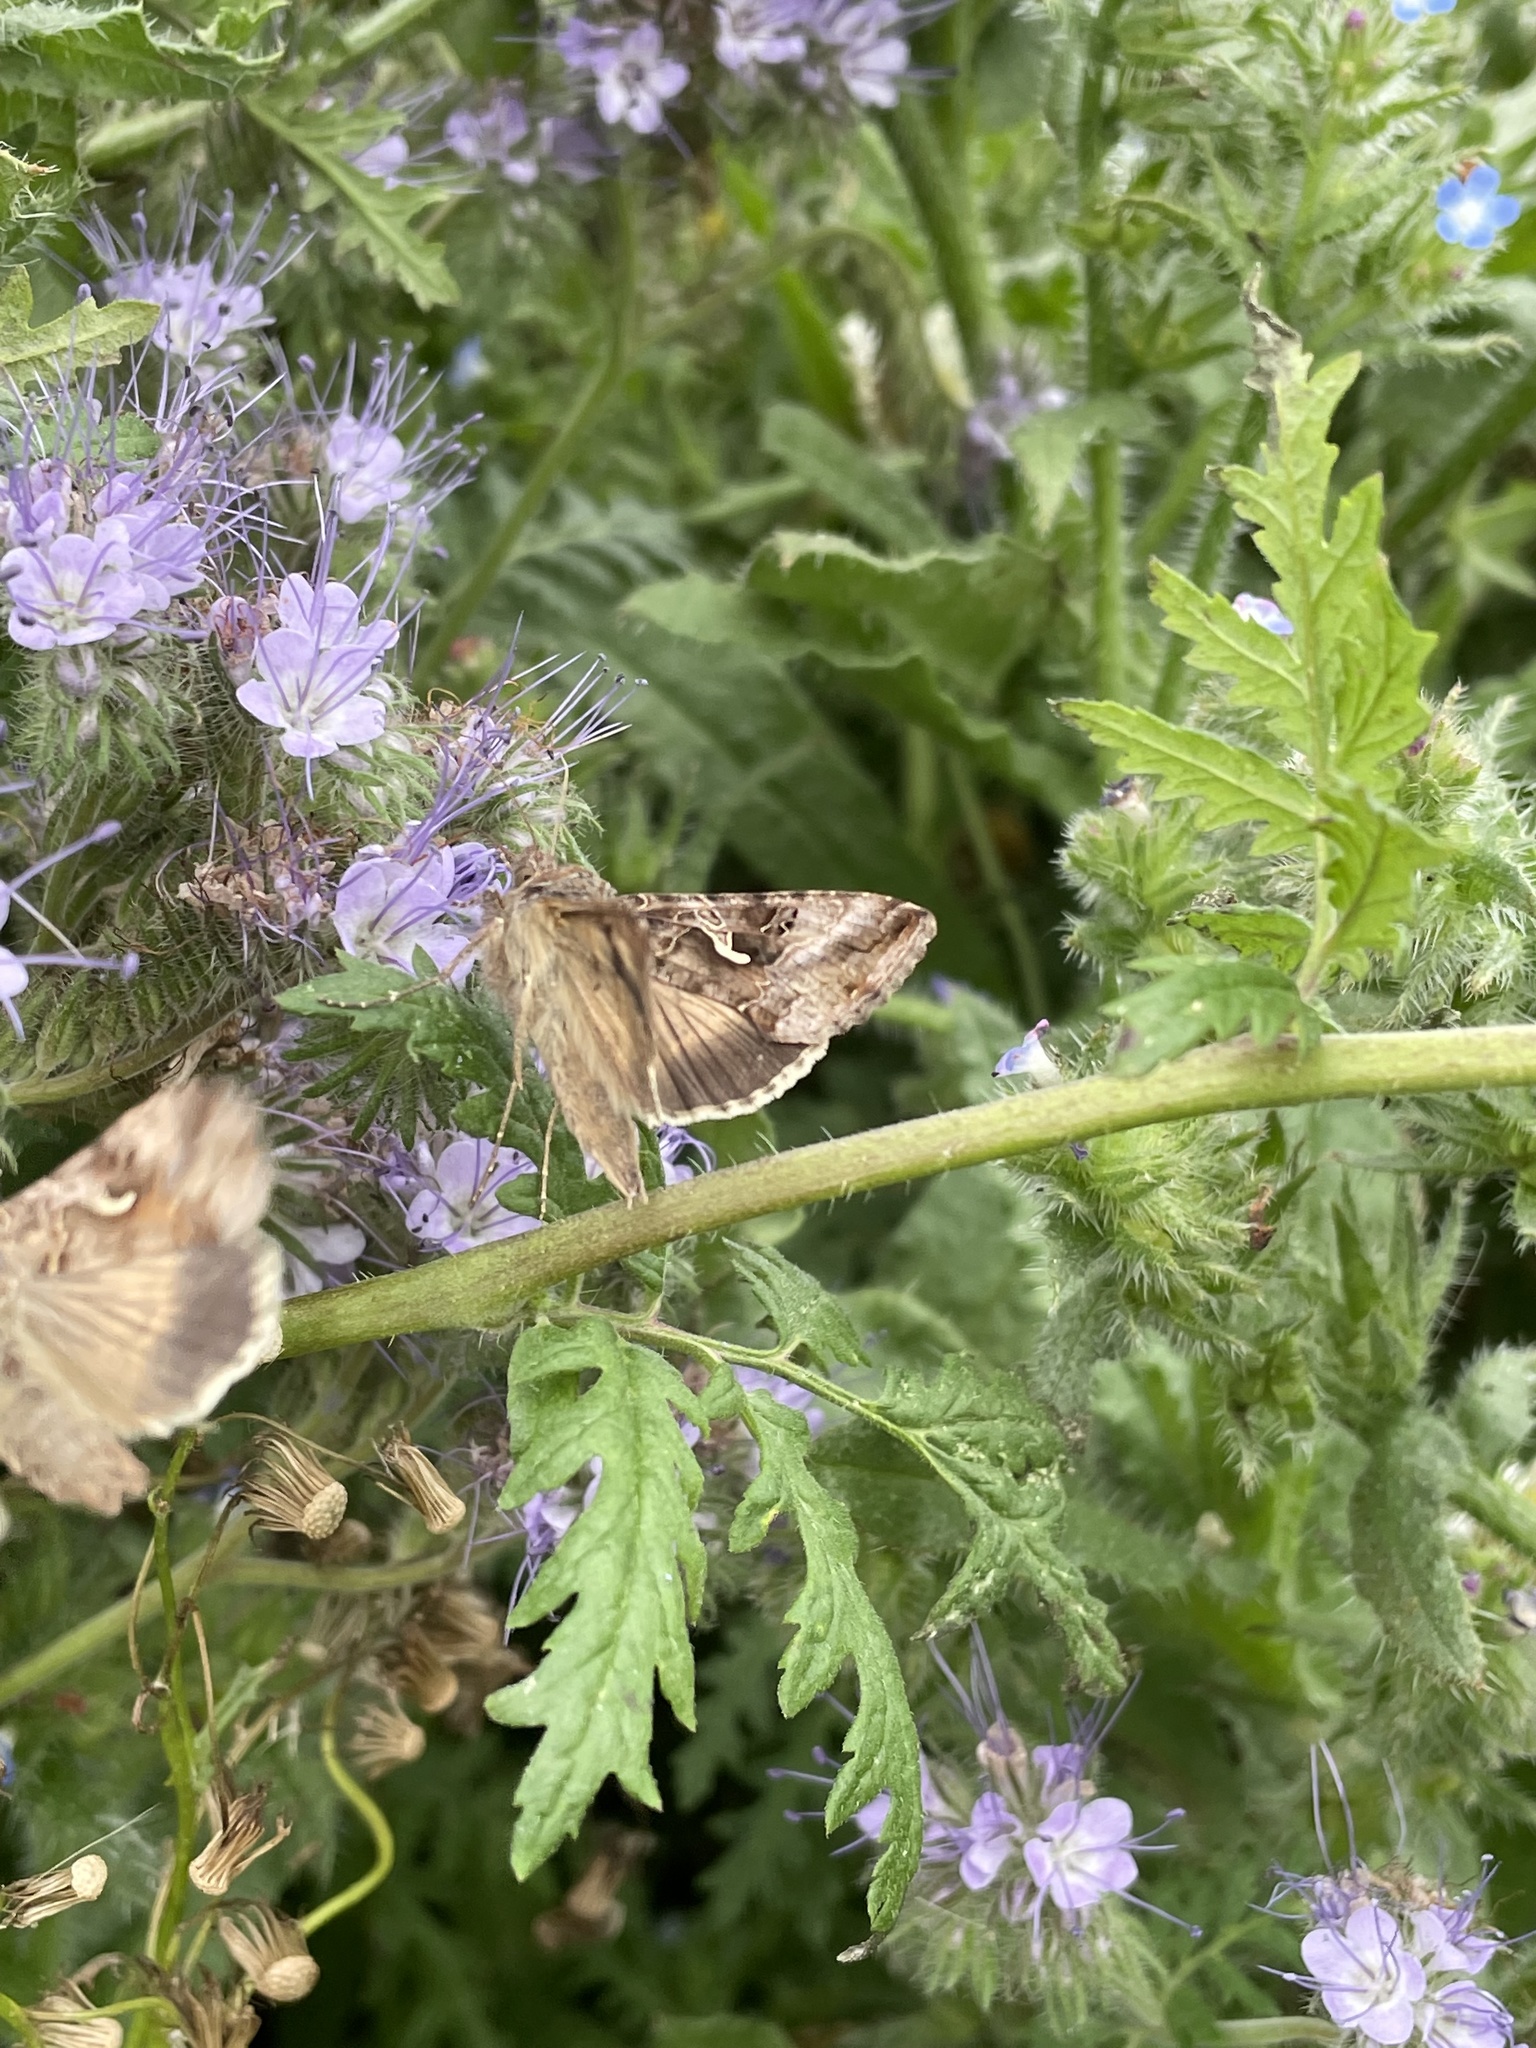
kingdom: Animalia
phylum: Arthropoda
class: Insecta
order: Lepidoptera
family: Noctuidae
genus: Autographa
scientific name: Autographa gamma
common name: Silver y
